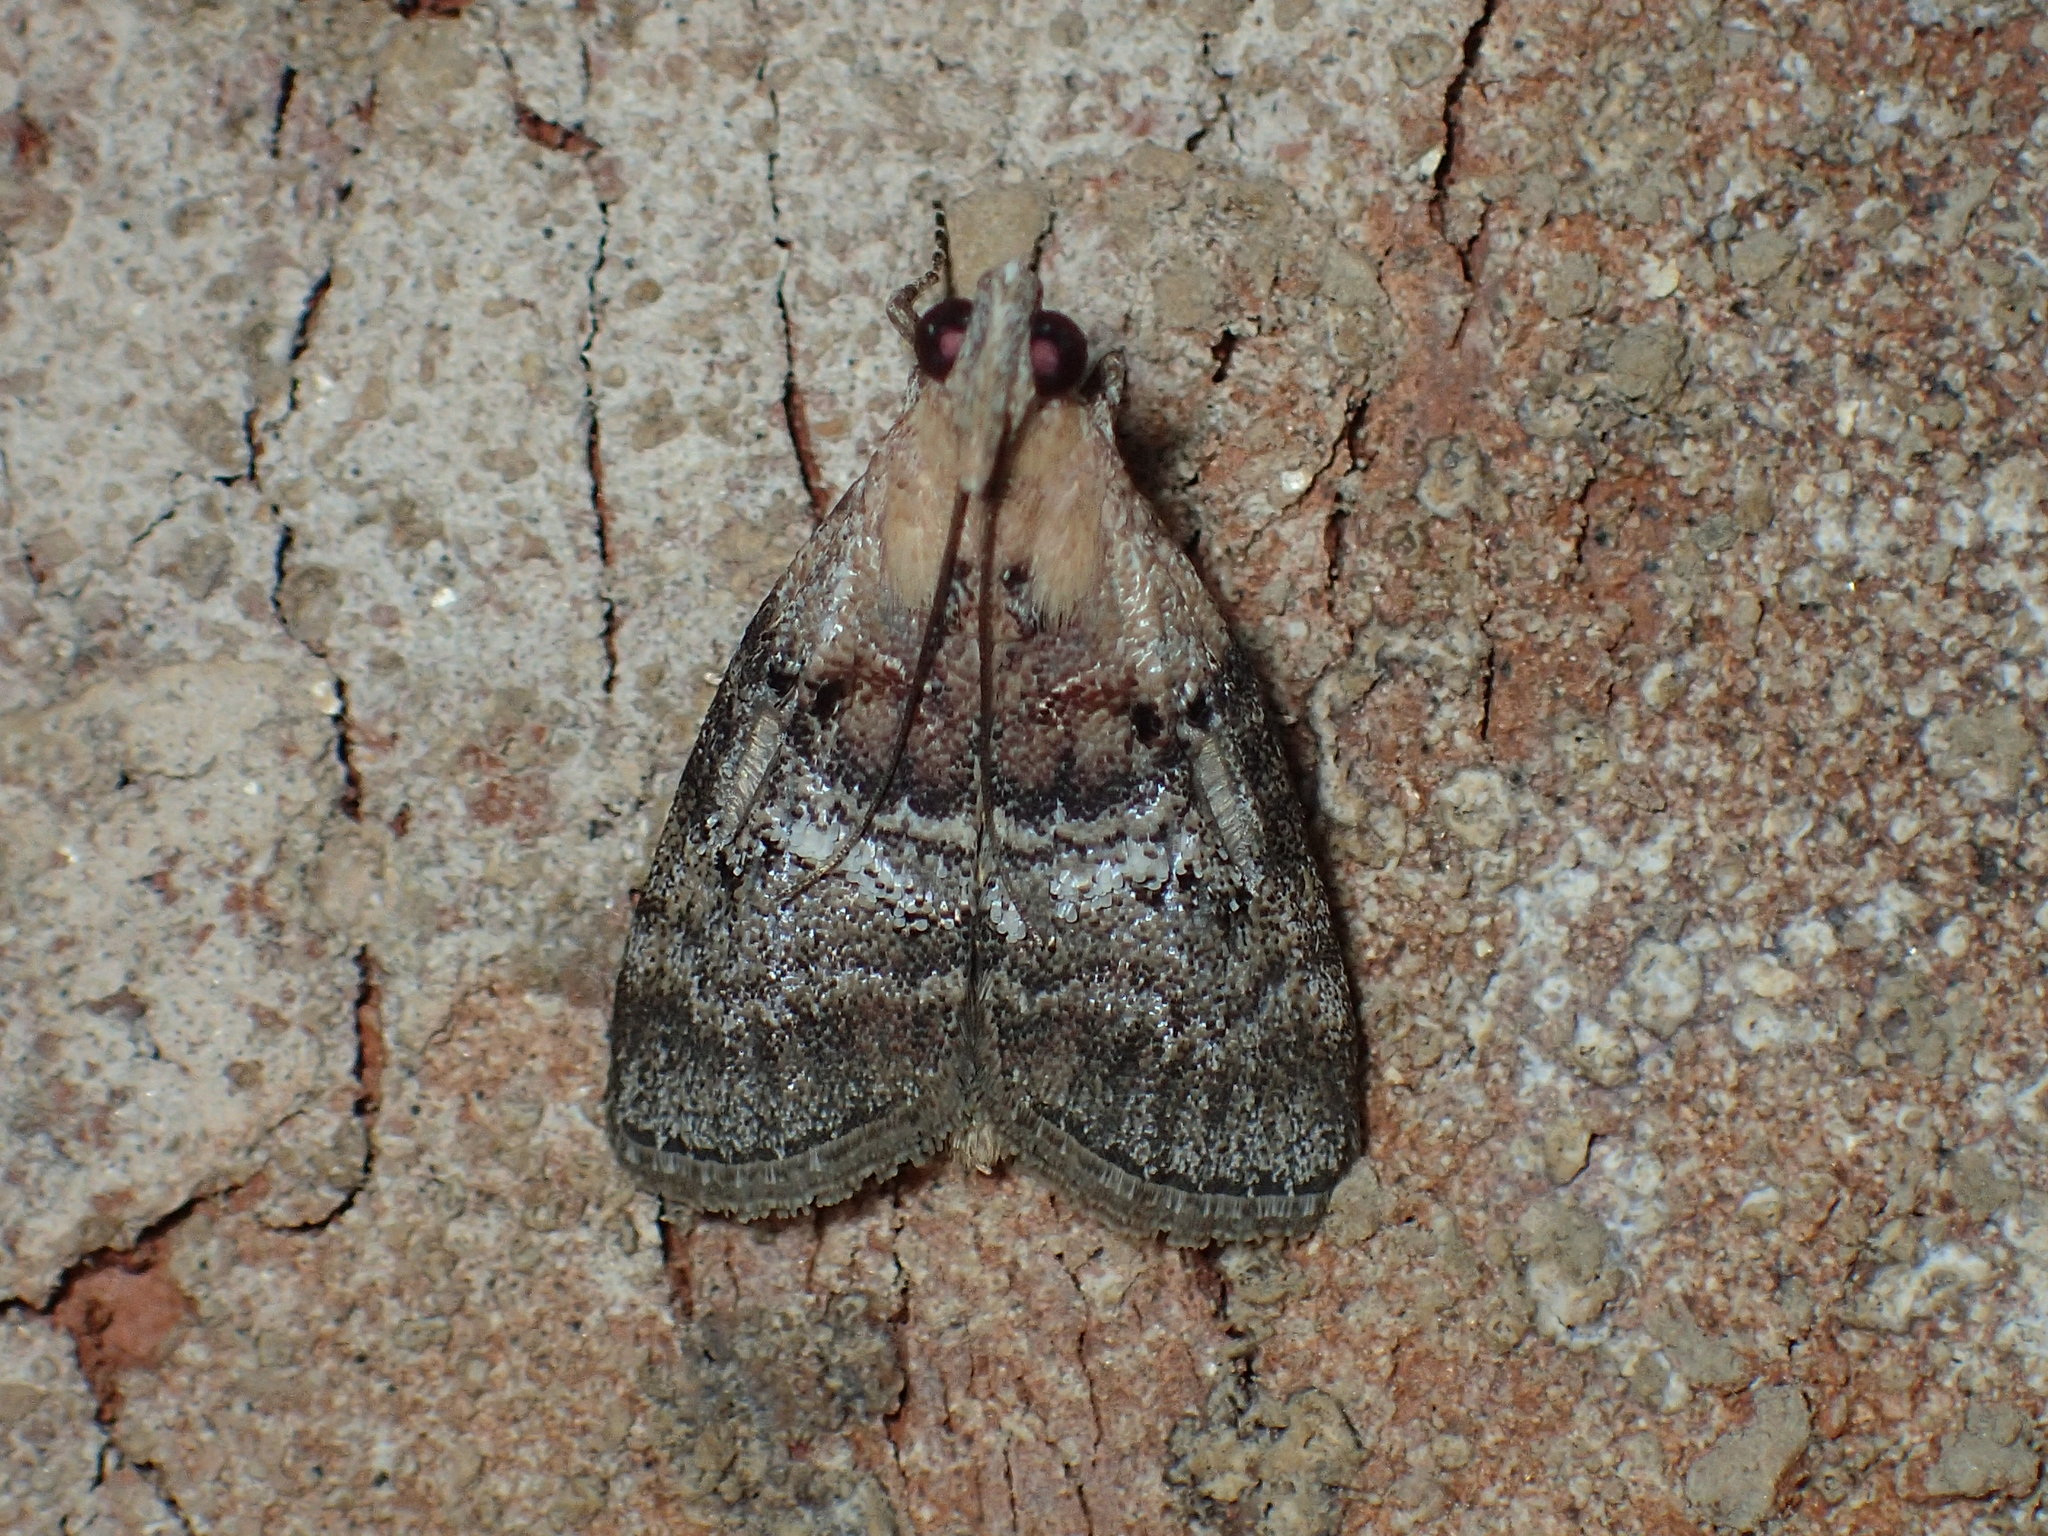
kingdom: Animalia
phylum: Arthropoda
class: Insecta
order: Lepidoptera
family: Pyralidae
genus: Pococera
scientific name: Pococera expandens
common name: Striped oak webworm moth
